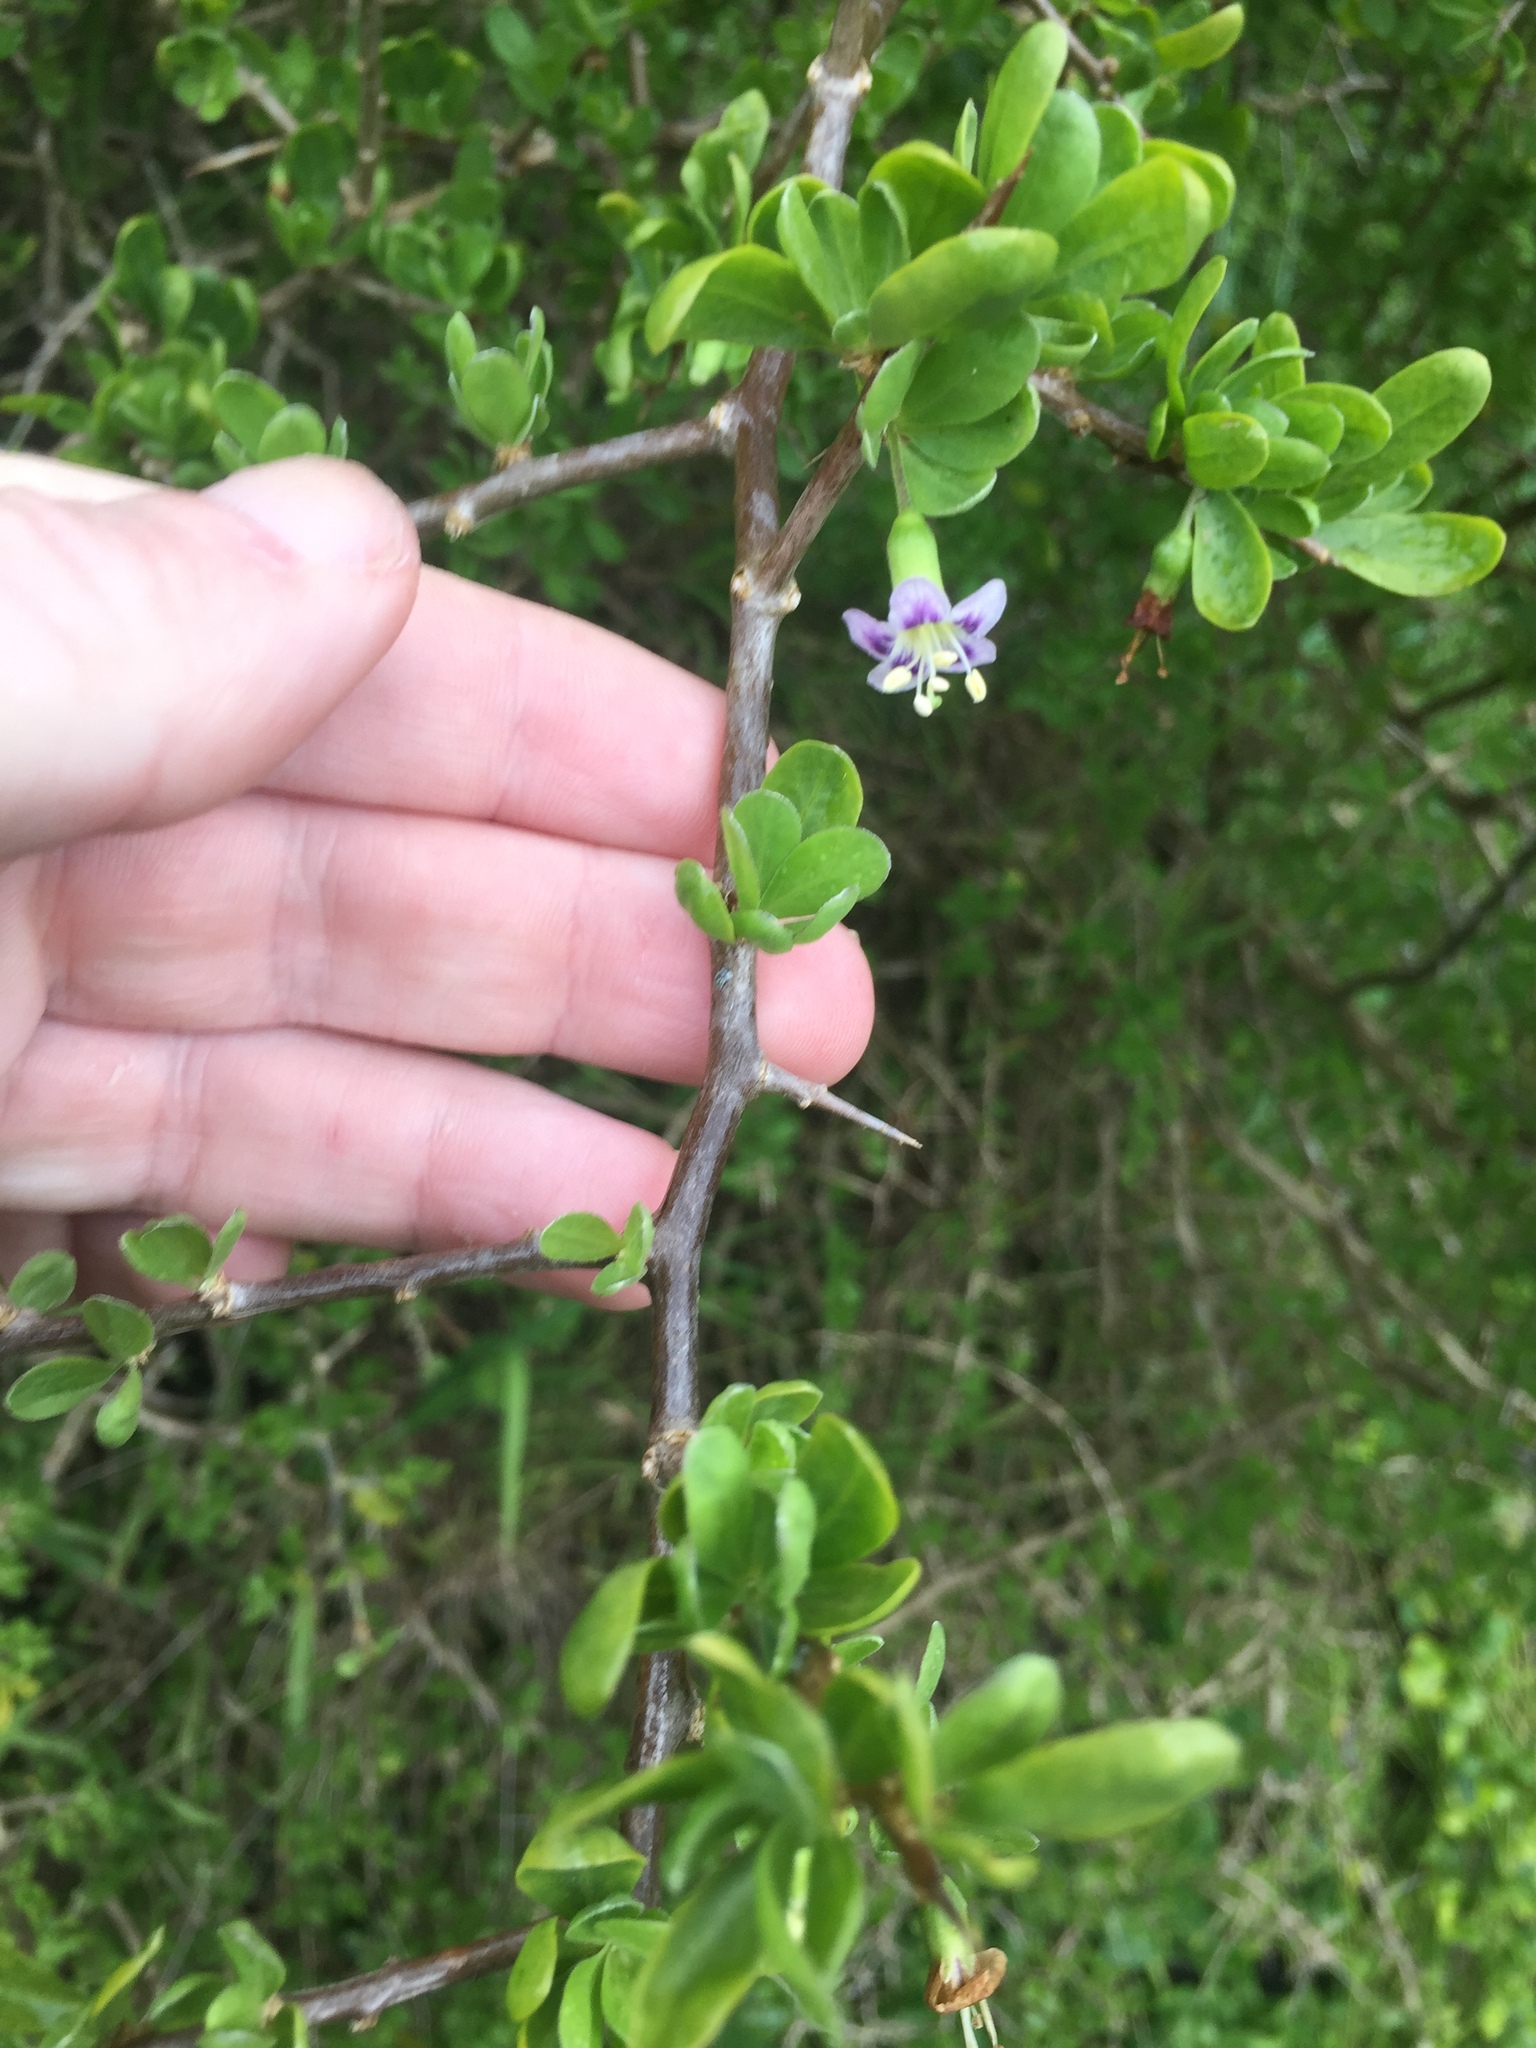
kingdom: Plantae
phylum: Tracheophyta
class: Magnoliopsida
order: Solanales
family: Solanaceae
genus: Lycium
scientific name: Lycium ferocissimum
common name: African boxthorn
